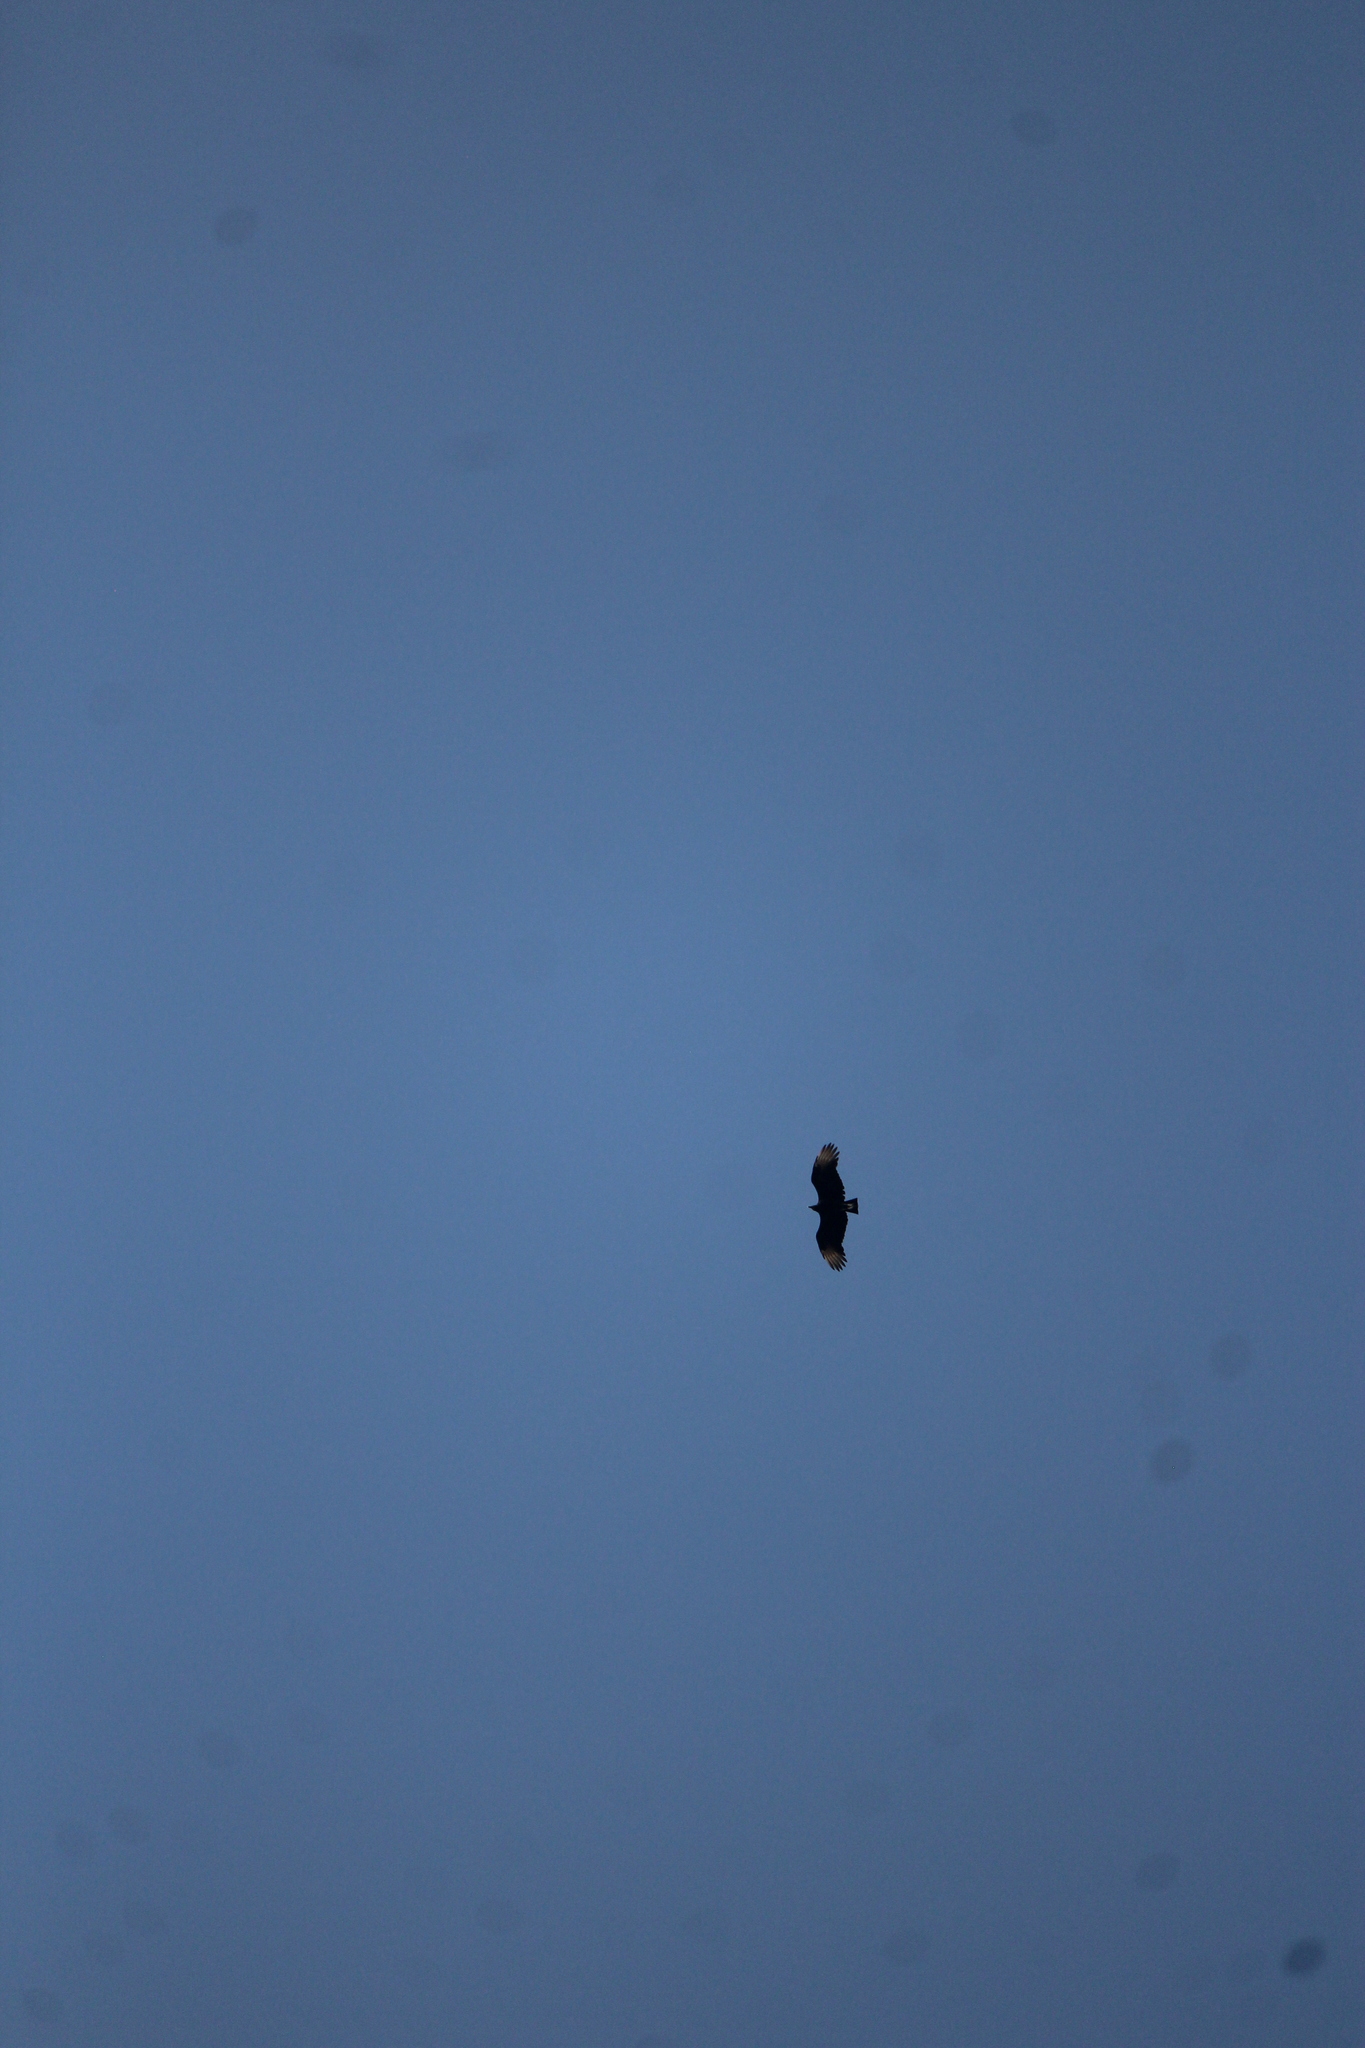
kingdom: Animalia
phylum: Chordata
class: Aves
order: Accipitriformes
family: Cathartidae
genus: Coragyps
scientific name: Coragyps atratus
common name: Black vulture
